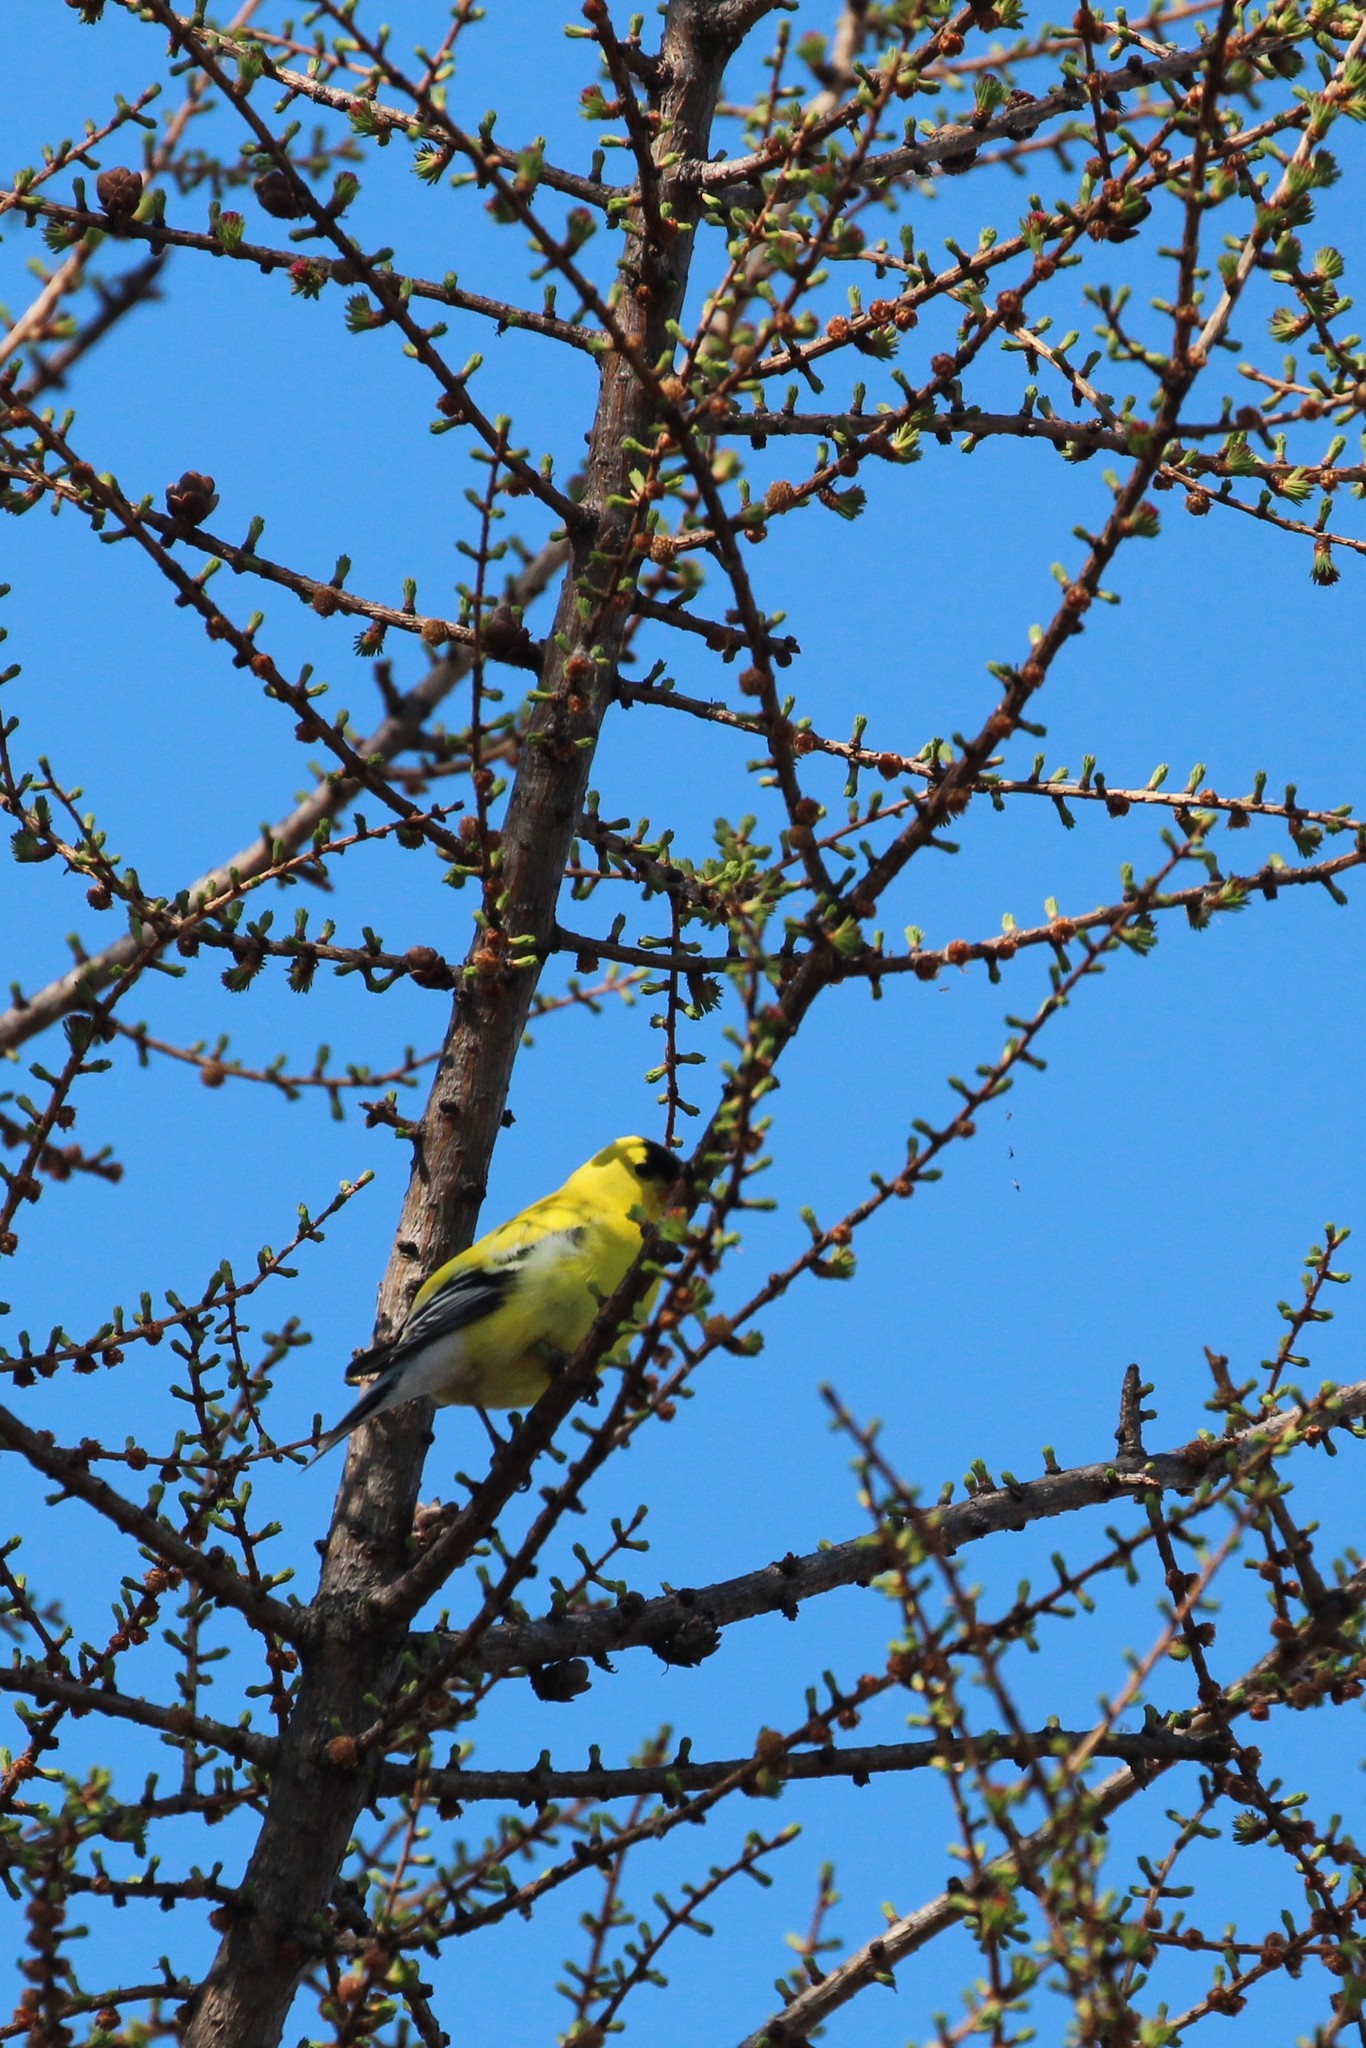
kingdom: Animalia
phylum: Chordata
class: Aves
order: Passeriformes
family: Fringillidae
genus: Spinus
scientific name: Spinus tristis
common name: American goldfinch
